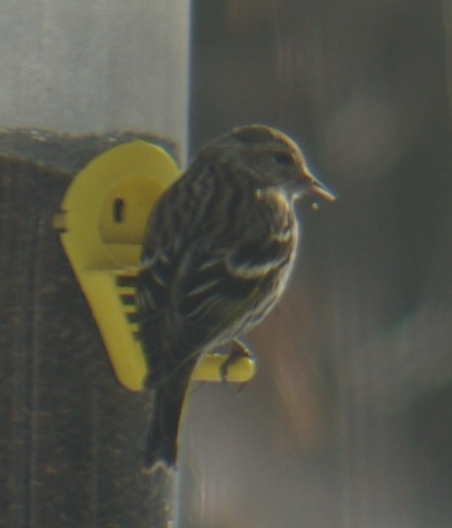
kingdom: Animalia
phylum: Chordata
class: Aves
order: Passeriformes
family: Fringillidae
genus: Spinus
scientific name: Spinus pinus
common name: Pine siskin
